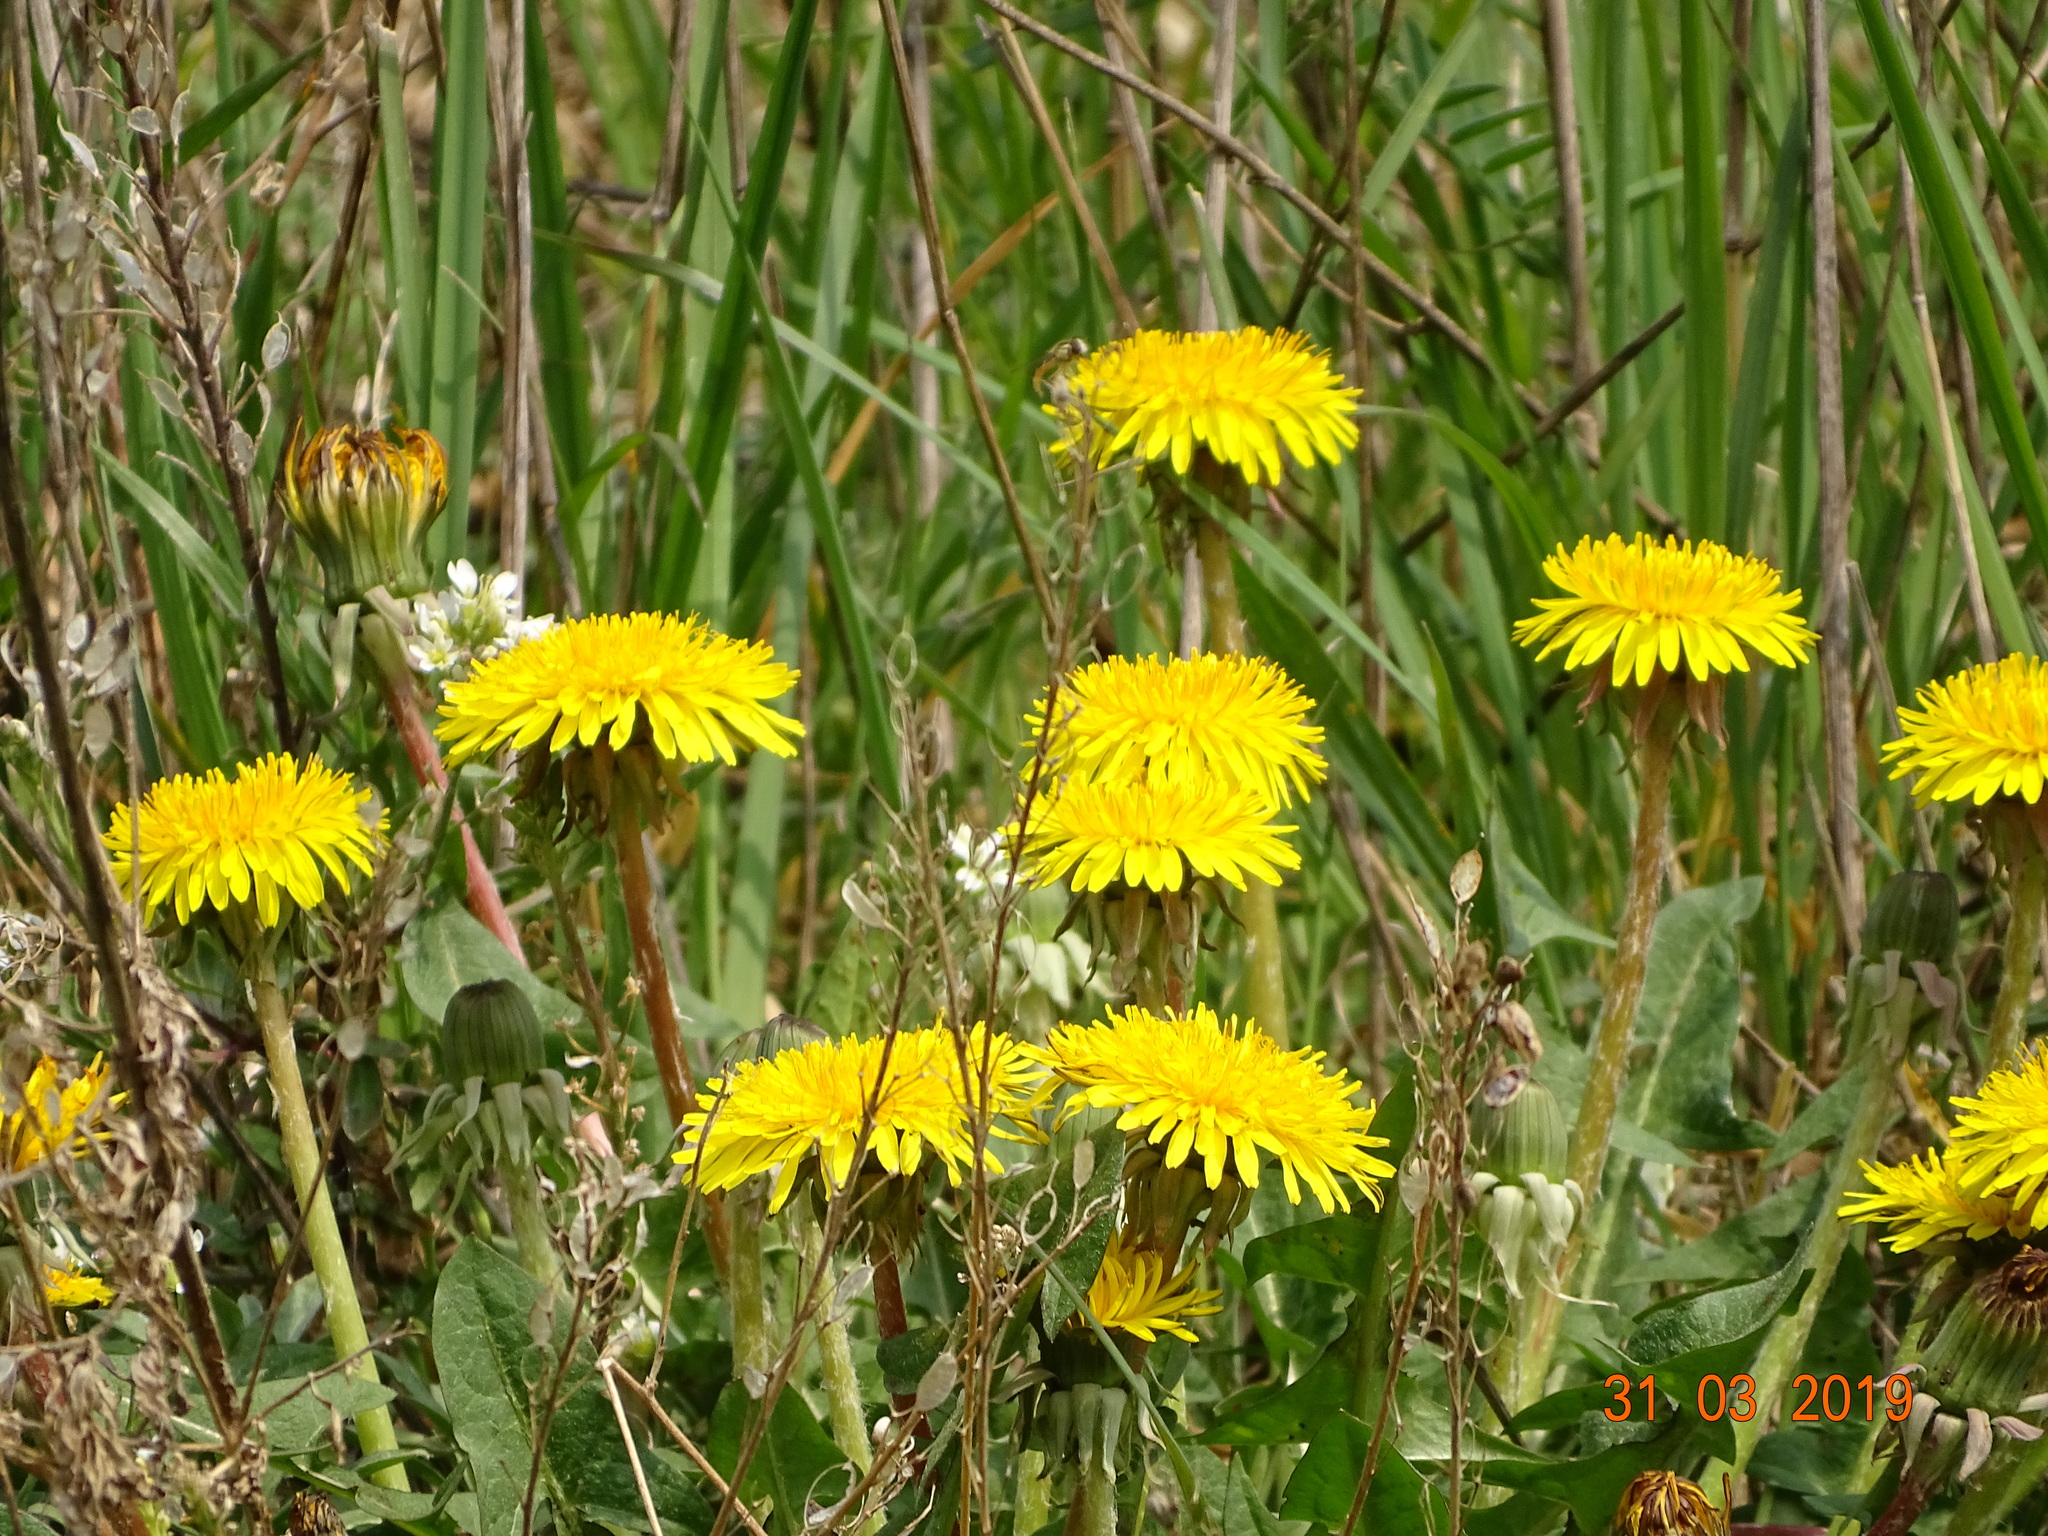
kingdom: Plantae
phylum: Tracheophyta
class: Magnoliopsida
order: Asterales
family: Asteraceae
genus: Taraxacum
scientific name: Taraxacum officinale
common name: Common dandelion
